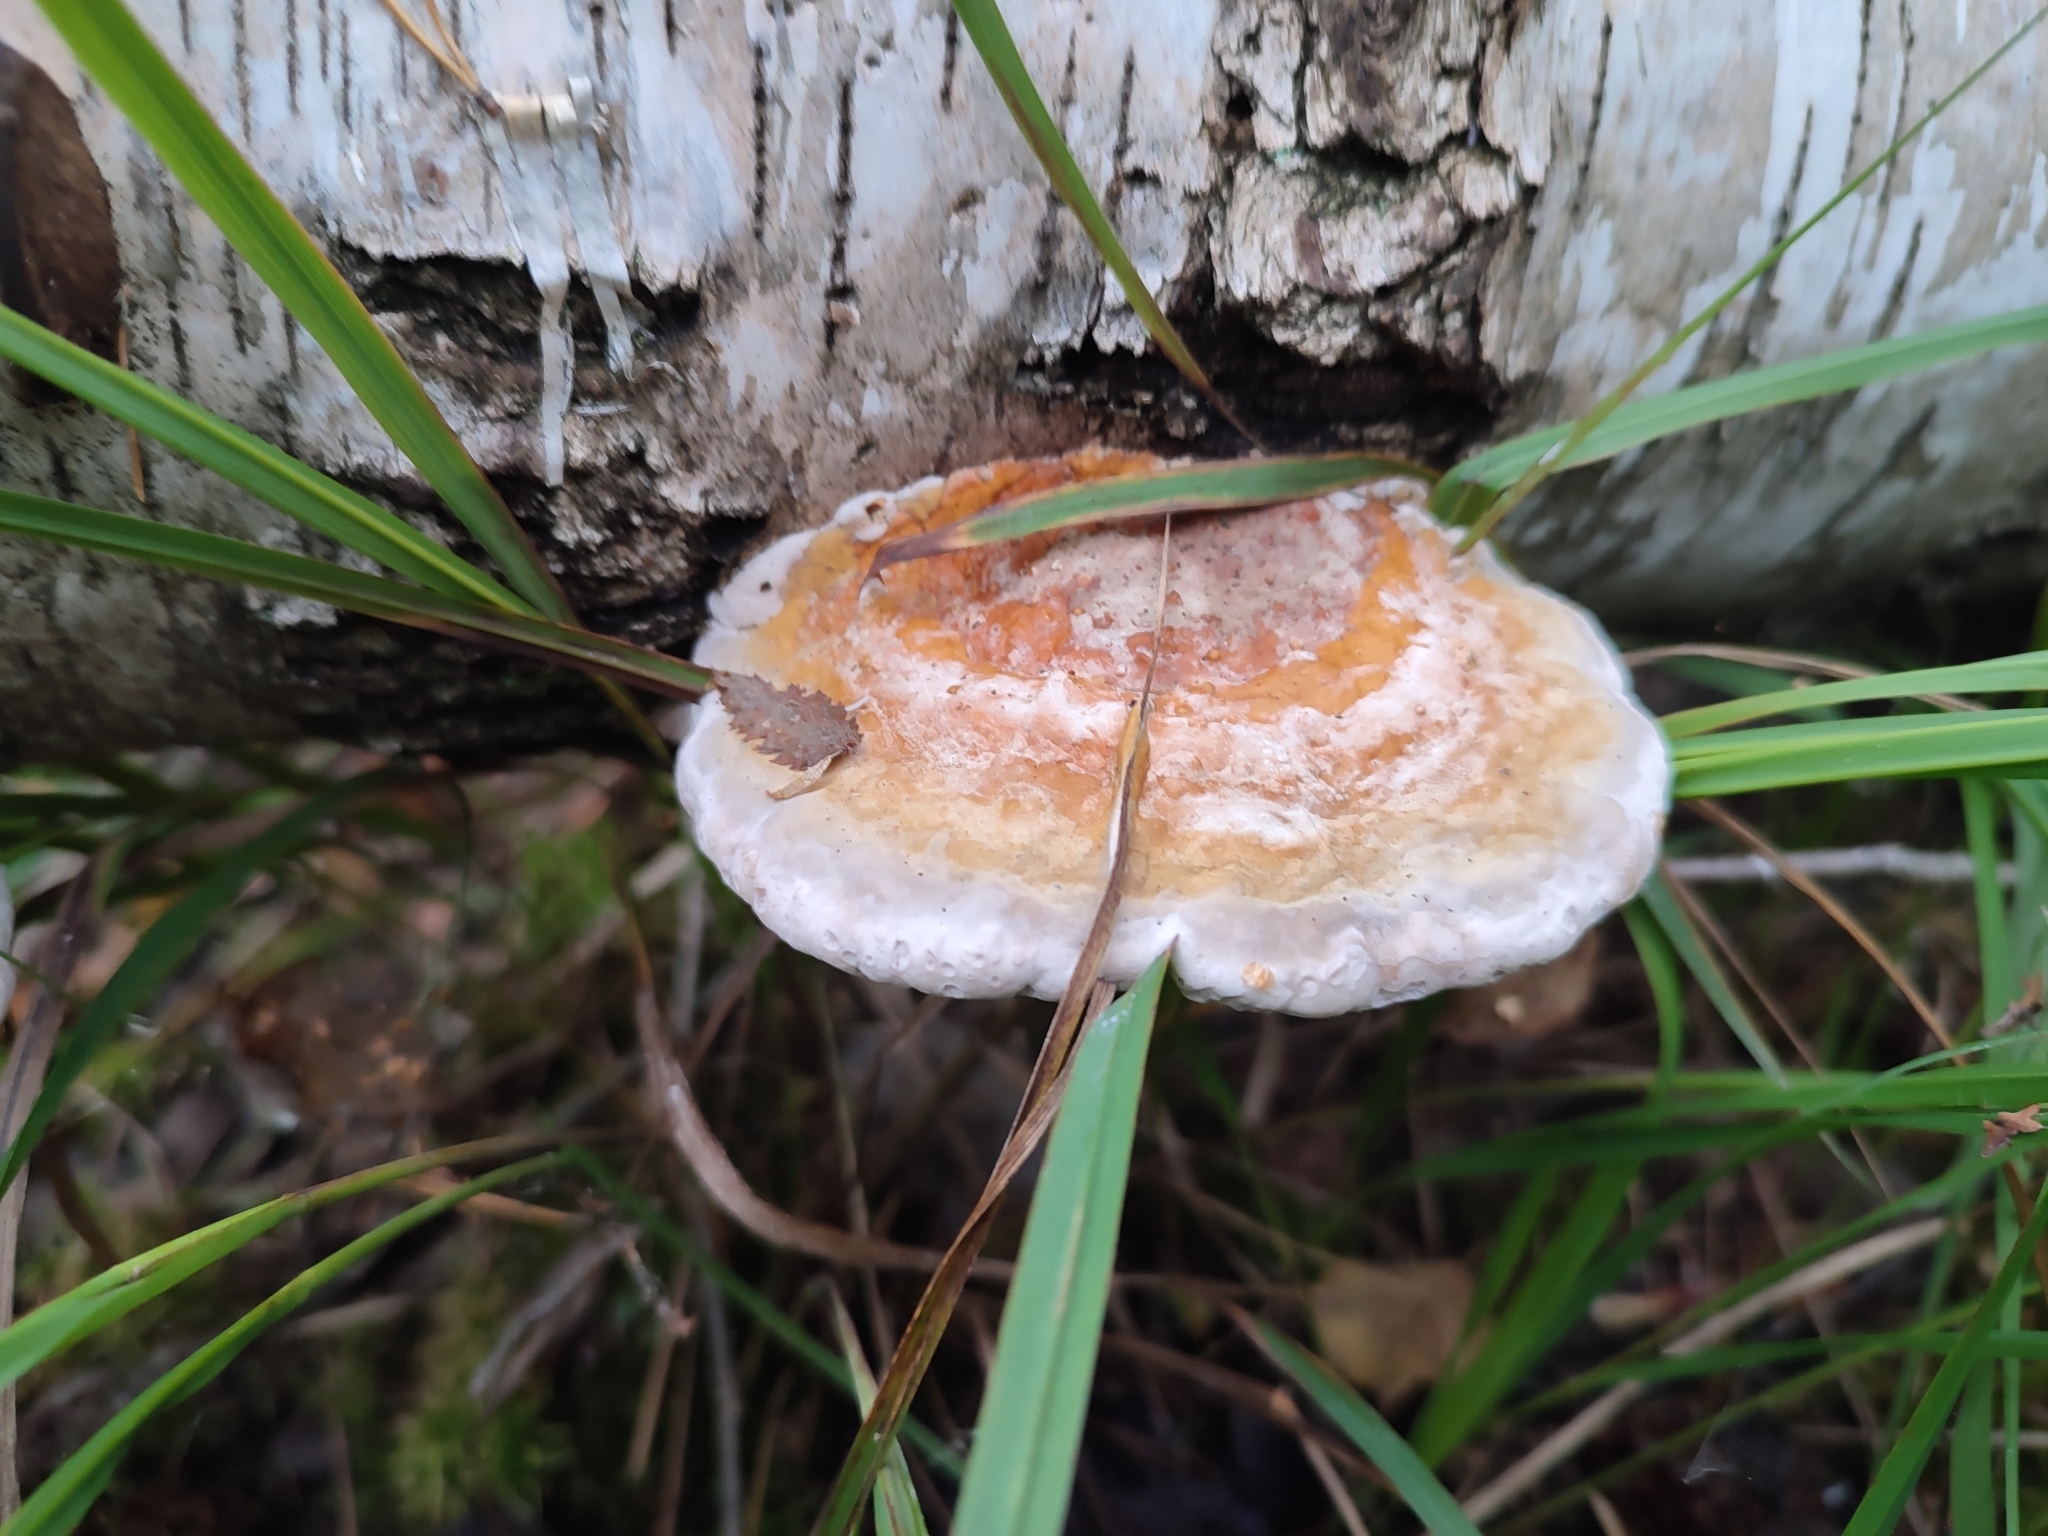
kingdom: Fungi
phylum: Basidiomycota
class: Agaricomycetes
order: Polyporales
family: Fomitopsidaceae
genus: Fomitopsis
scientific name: Fomitopsis pinicola
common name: Red-belted bracket
